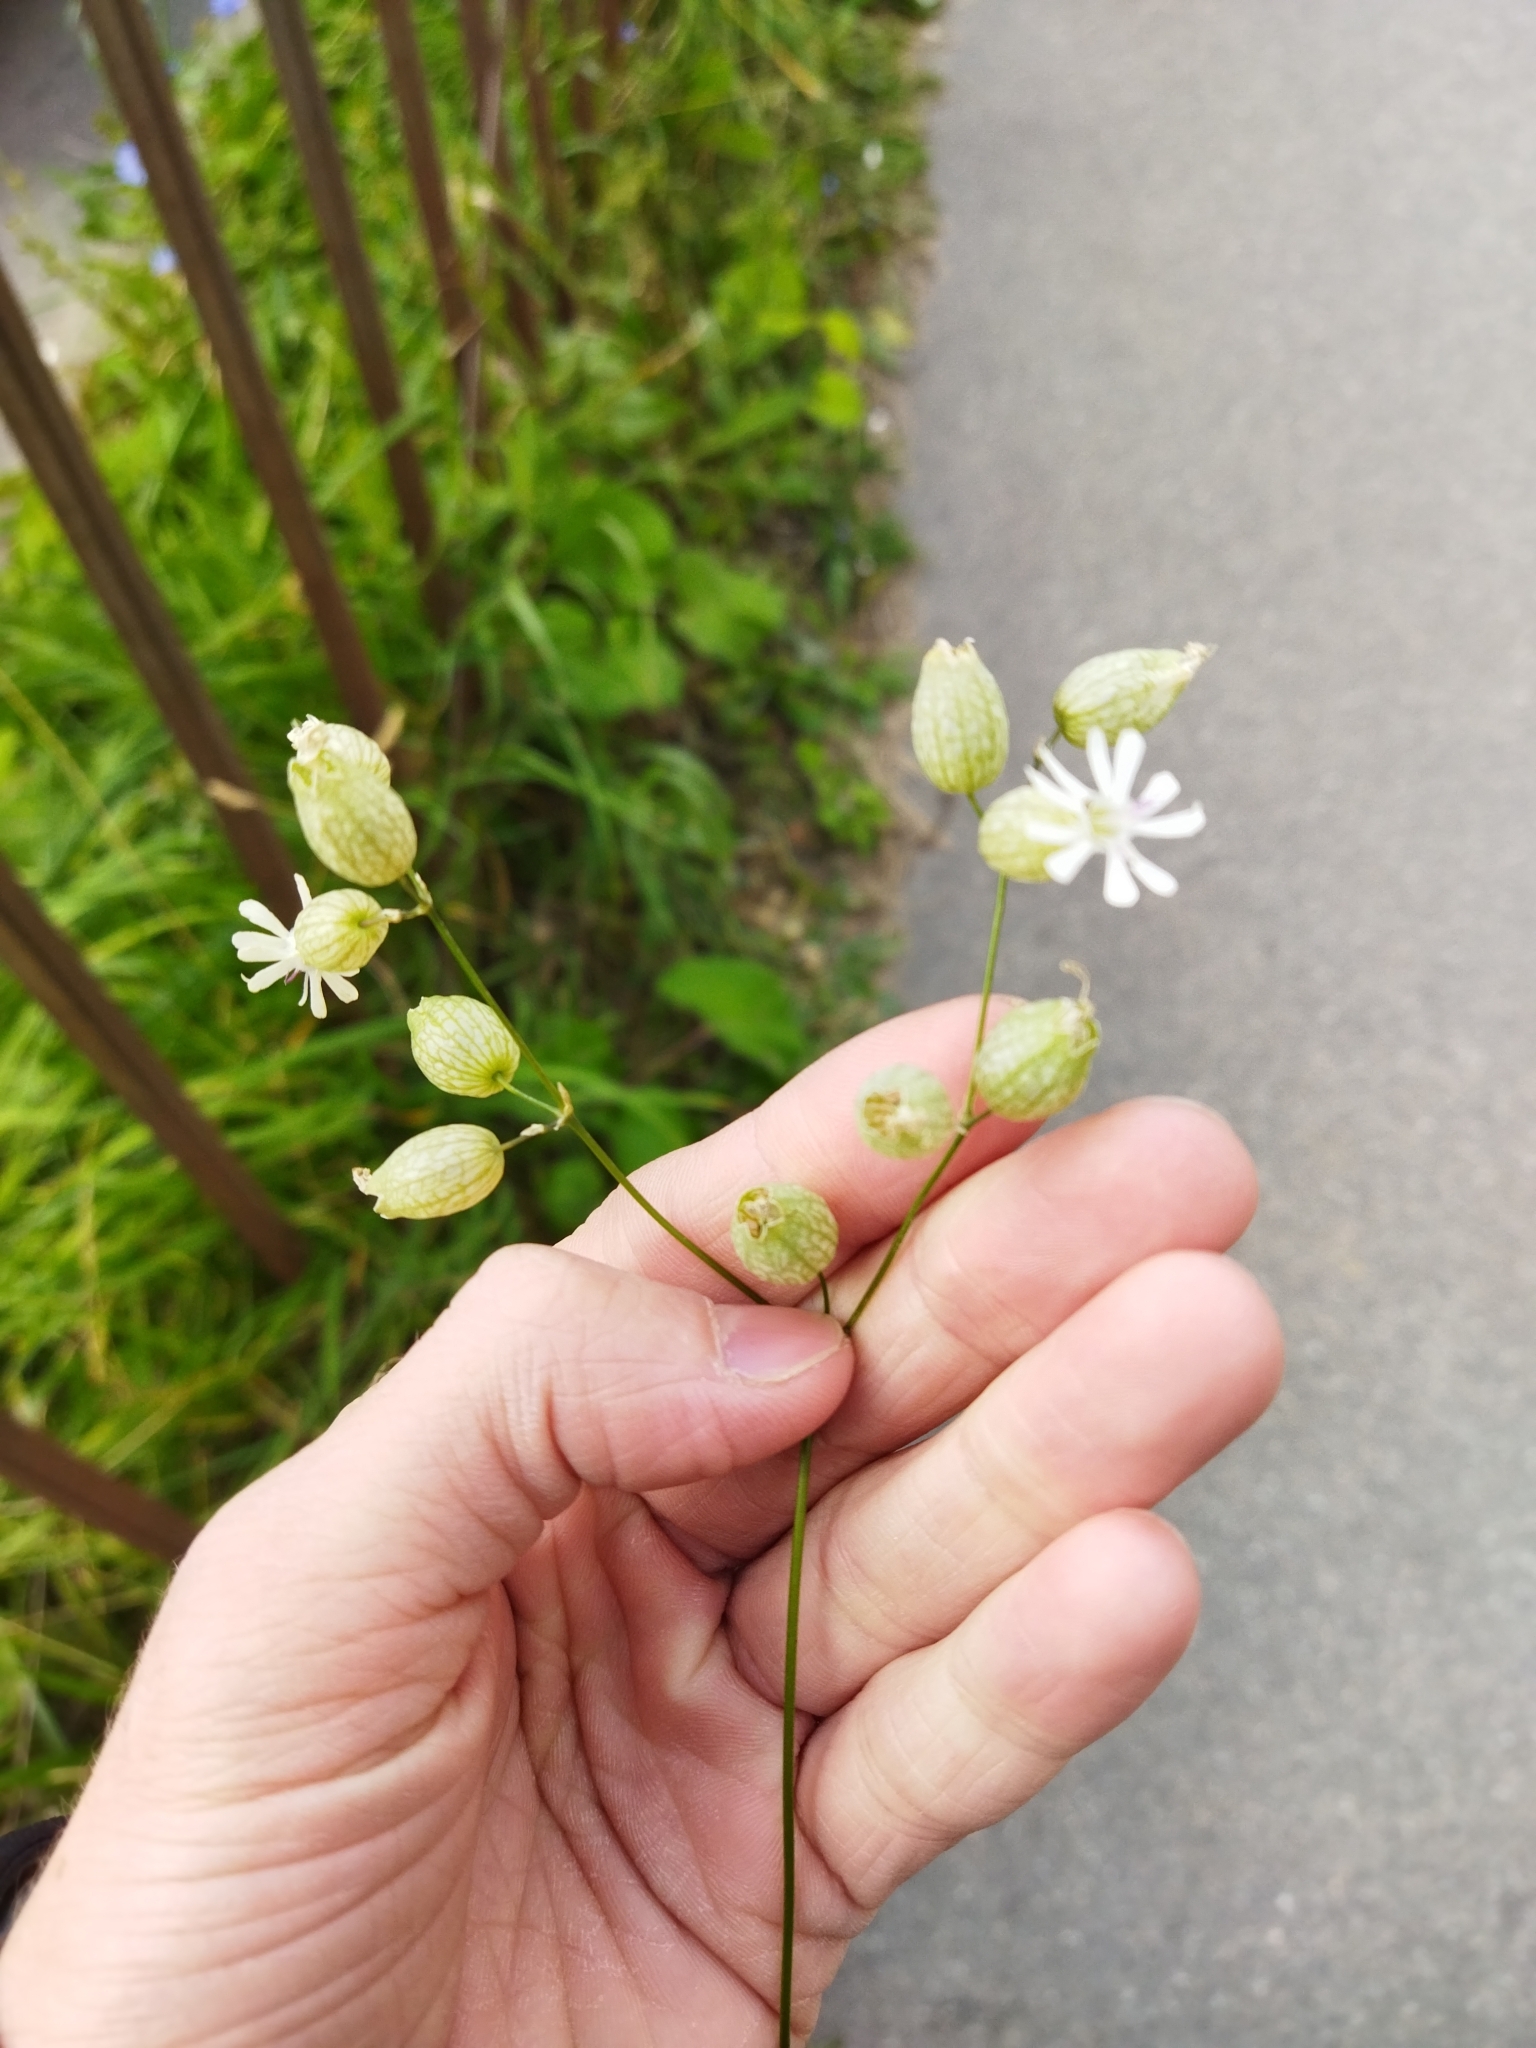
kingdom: Plantae
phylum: Tracheophyta
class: Magnoliopsida
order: Caryophyllales
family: Caryophyllaceae
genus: Silene
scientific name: Silene vulgaris
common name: Bladder campion
